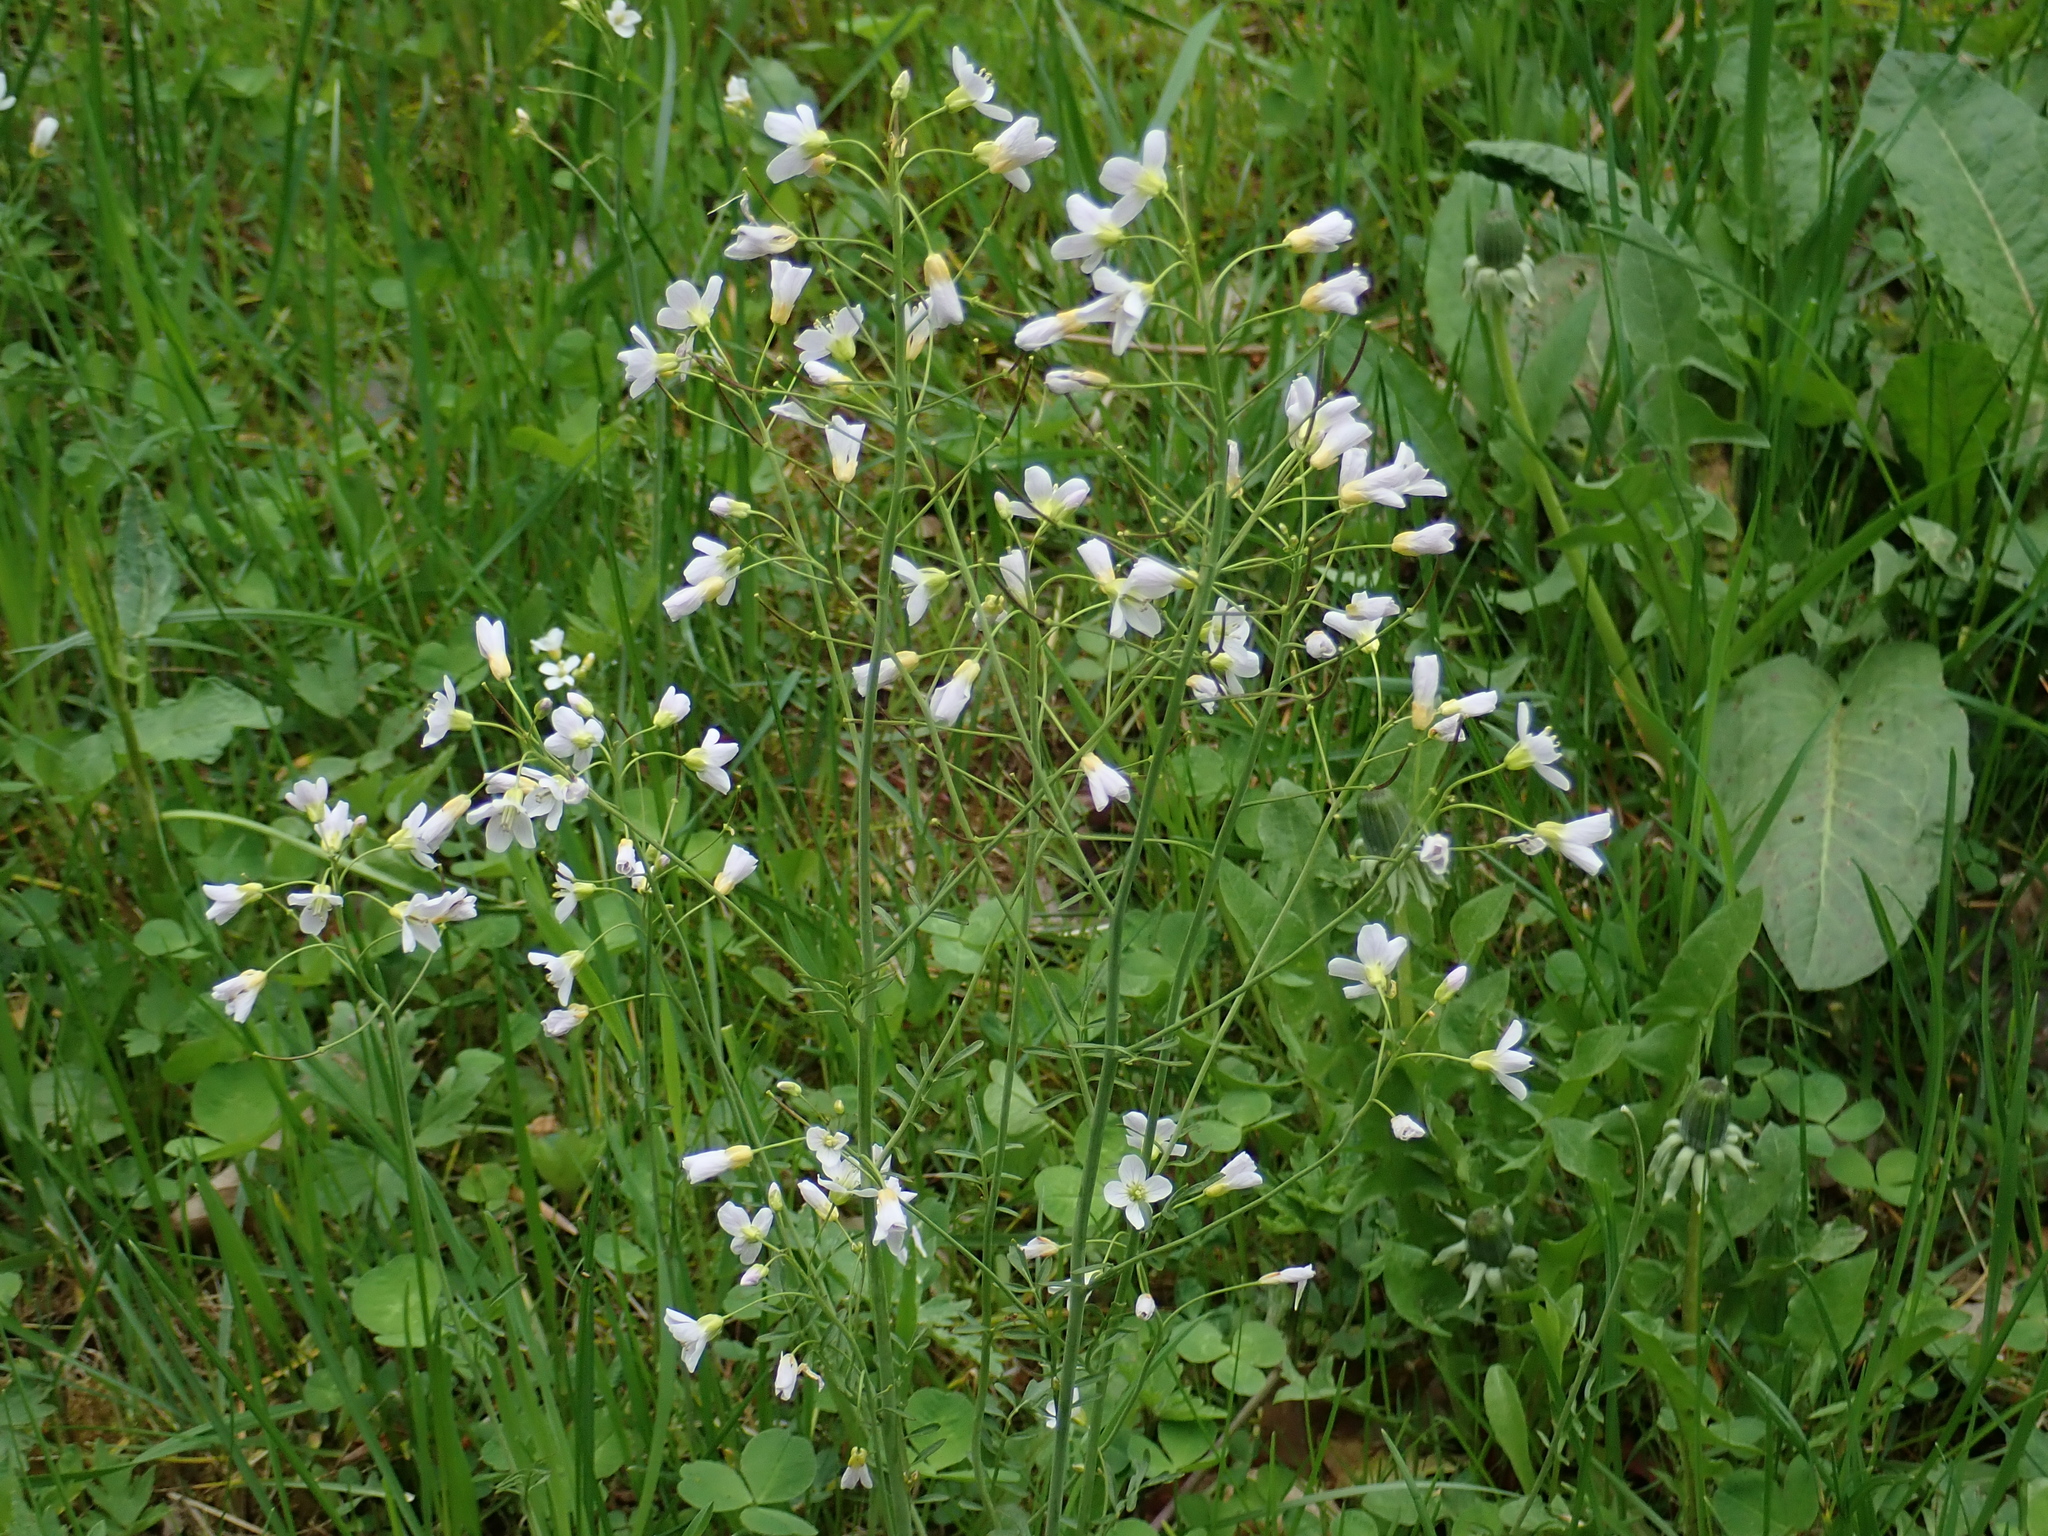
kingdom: Plantae
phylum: Tracheophyta
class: Magnoliopsida
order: Brassicales
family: Brassicaceae
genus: Cardamine
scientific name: Cardamine pratensis
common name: Cuckoo flower
